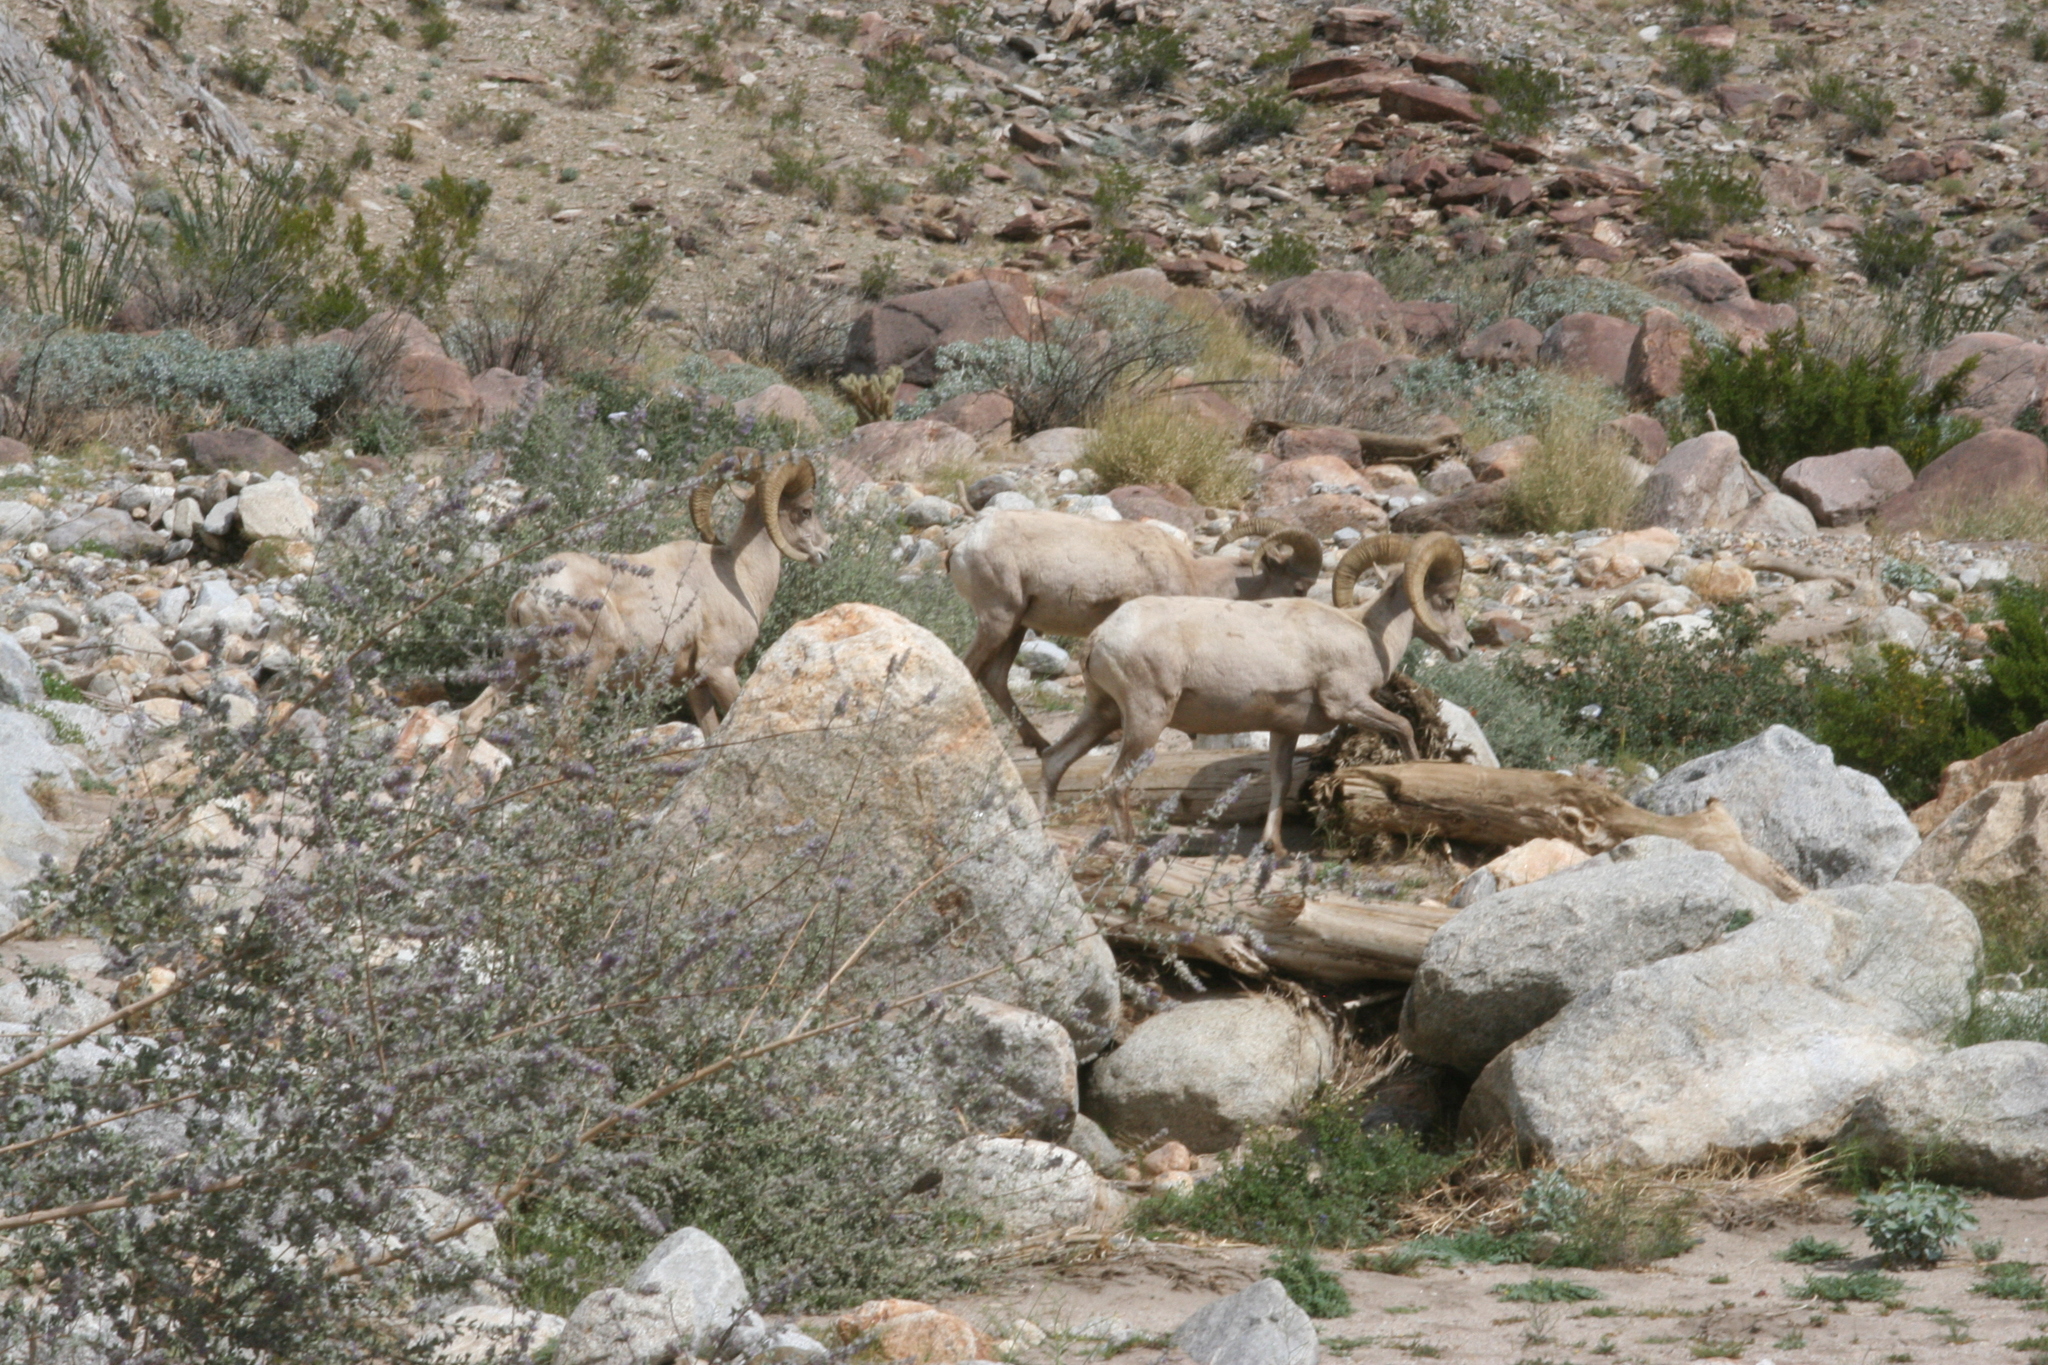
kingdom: Animalia
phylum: Chordata
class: Mammalia
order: Artiodactyla
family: Bovidae
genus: Ovis
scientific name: Ovis canadensis
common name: Bighorn sheep
